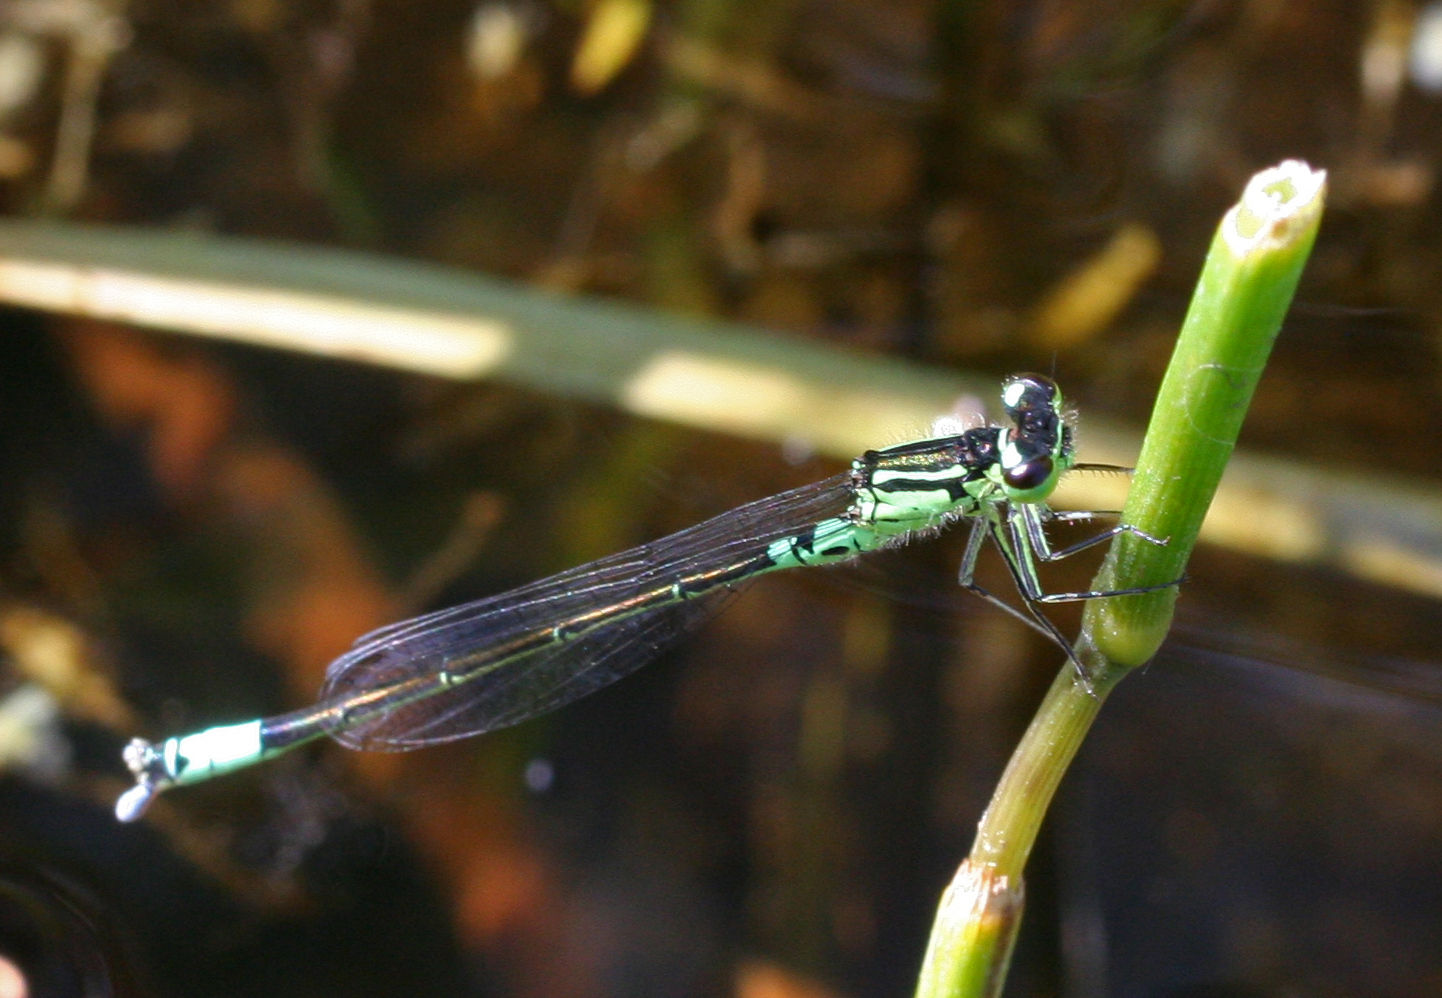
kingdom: Animalia
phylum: Arthropoda
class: Insecta
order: Odonata
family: Coenagrionidae
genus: Coenagrion
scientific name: Coenagrion armatum
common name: Dark bluet
